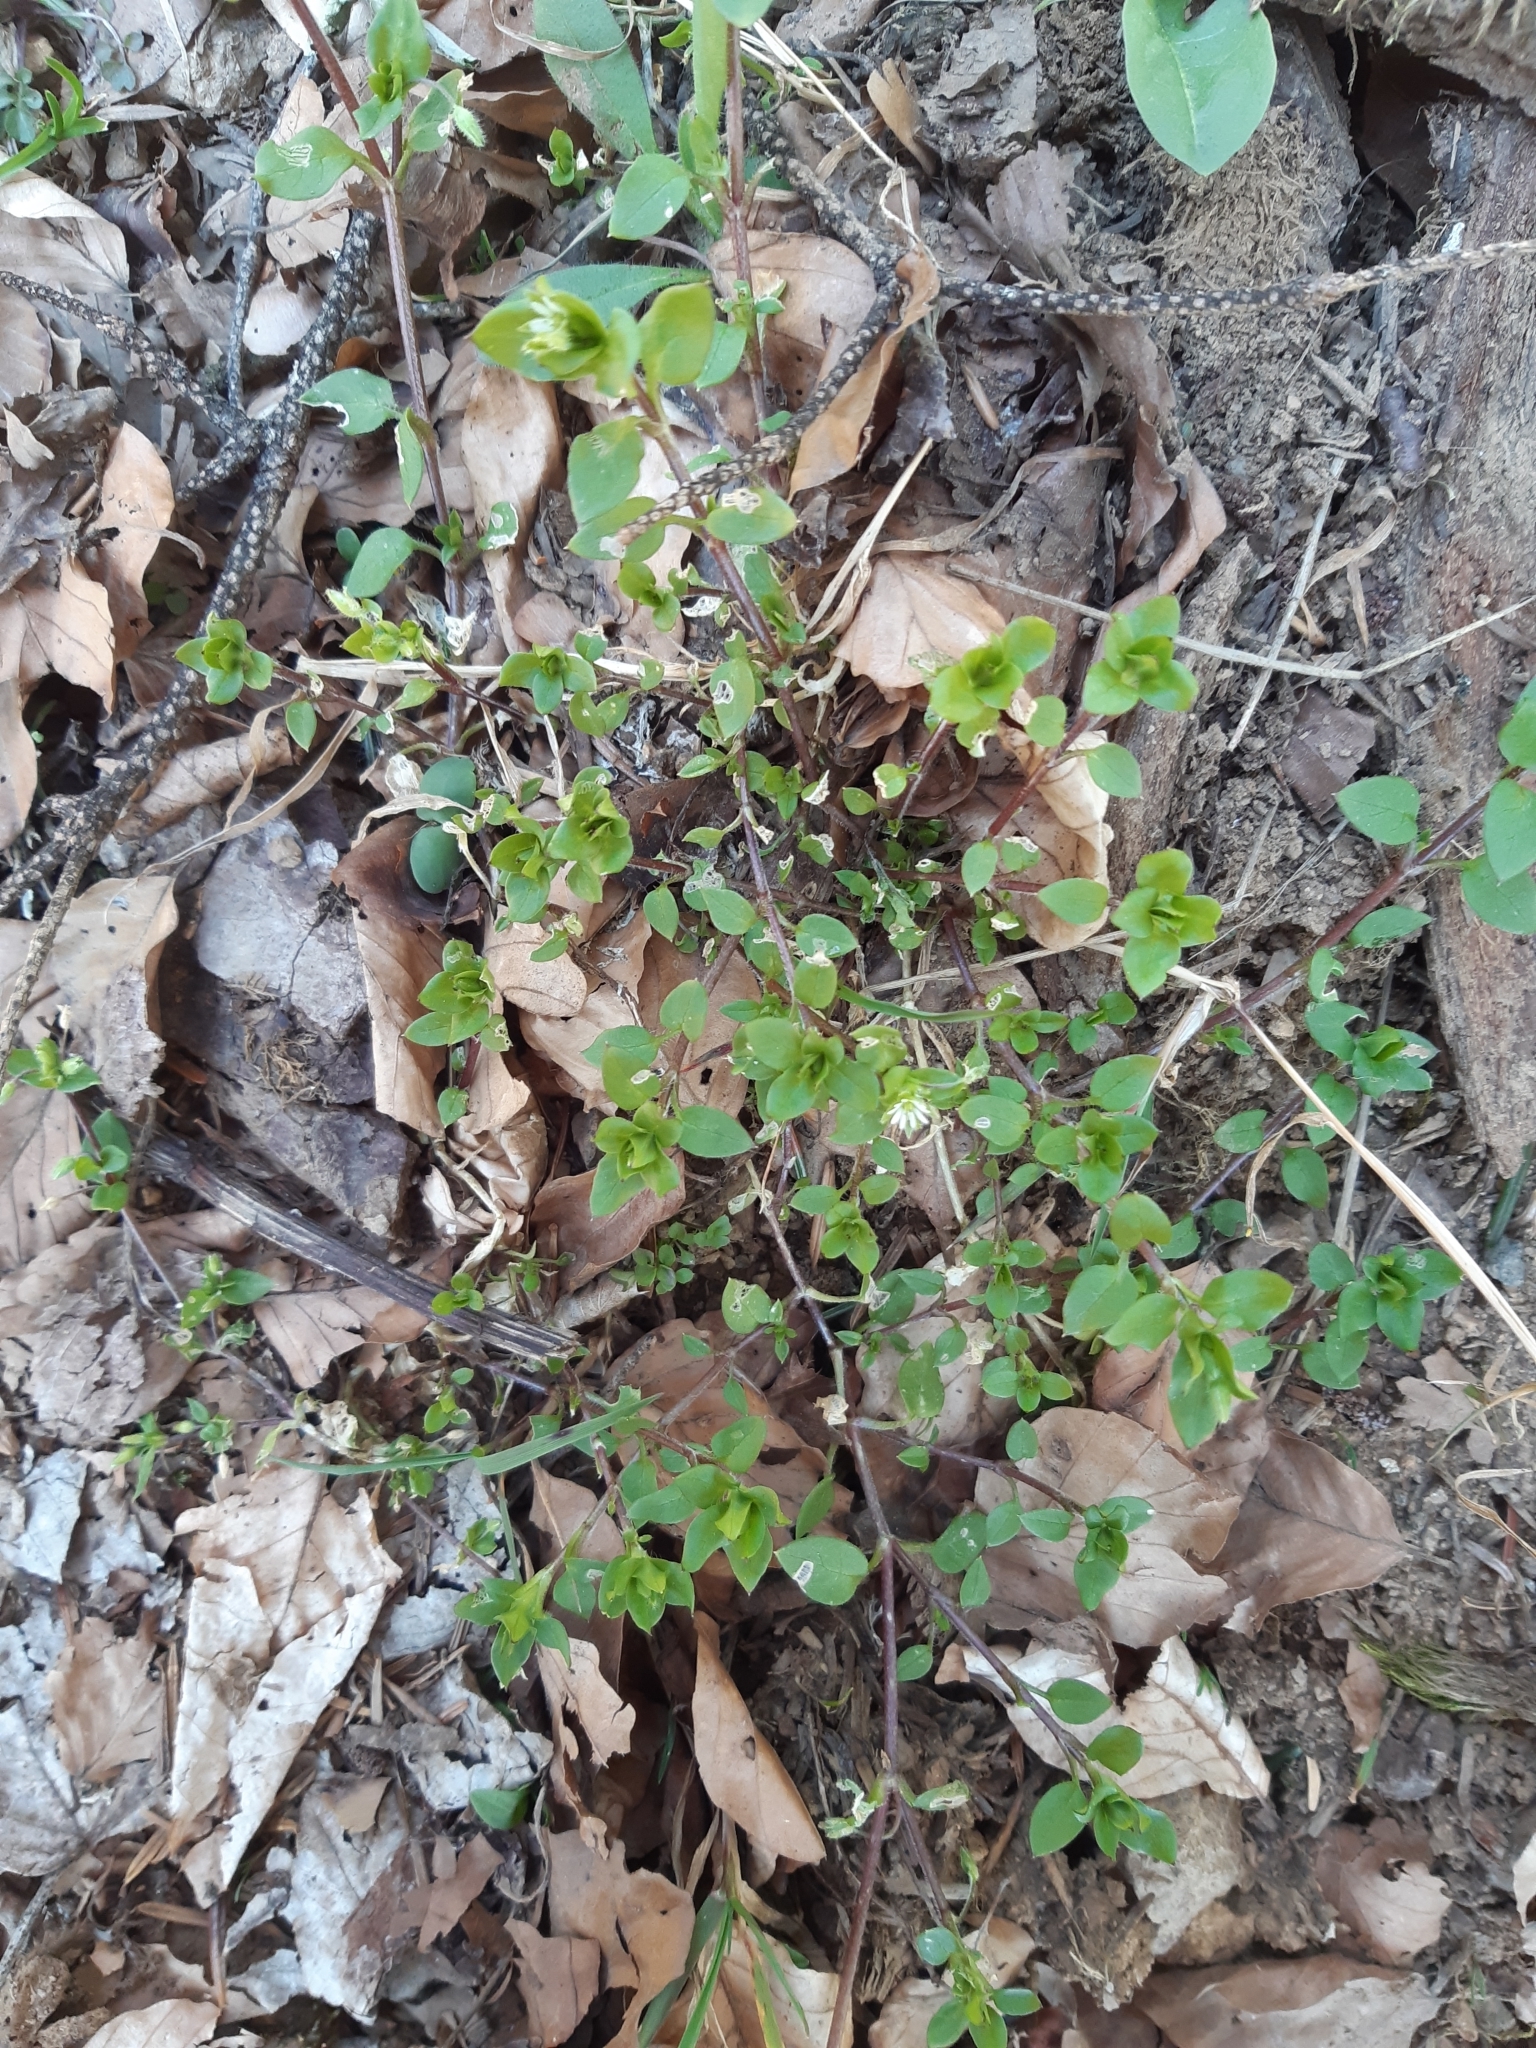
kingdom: Plantae
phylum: Tracheophyta
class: Magnoliopsida
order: Caryophyllales
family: Caryophyllaceae
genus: Stellaria
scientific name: Stellaria media
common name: Common chickweed
